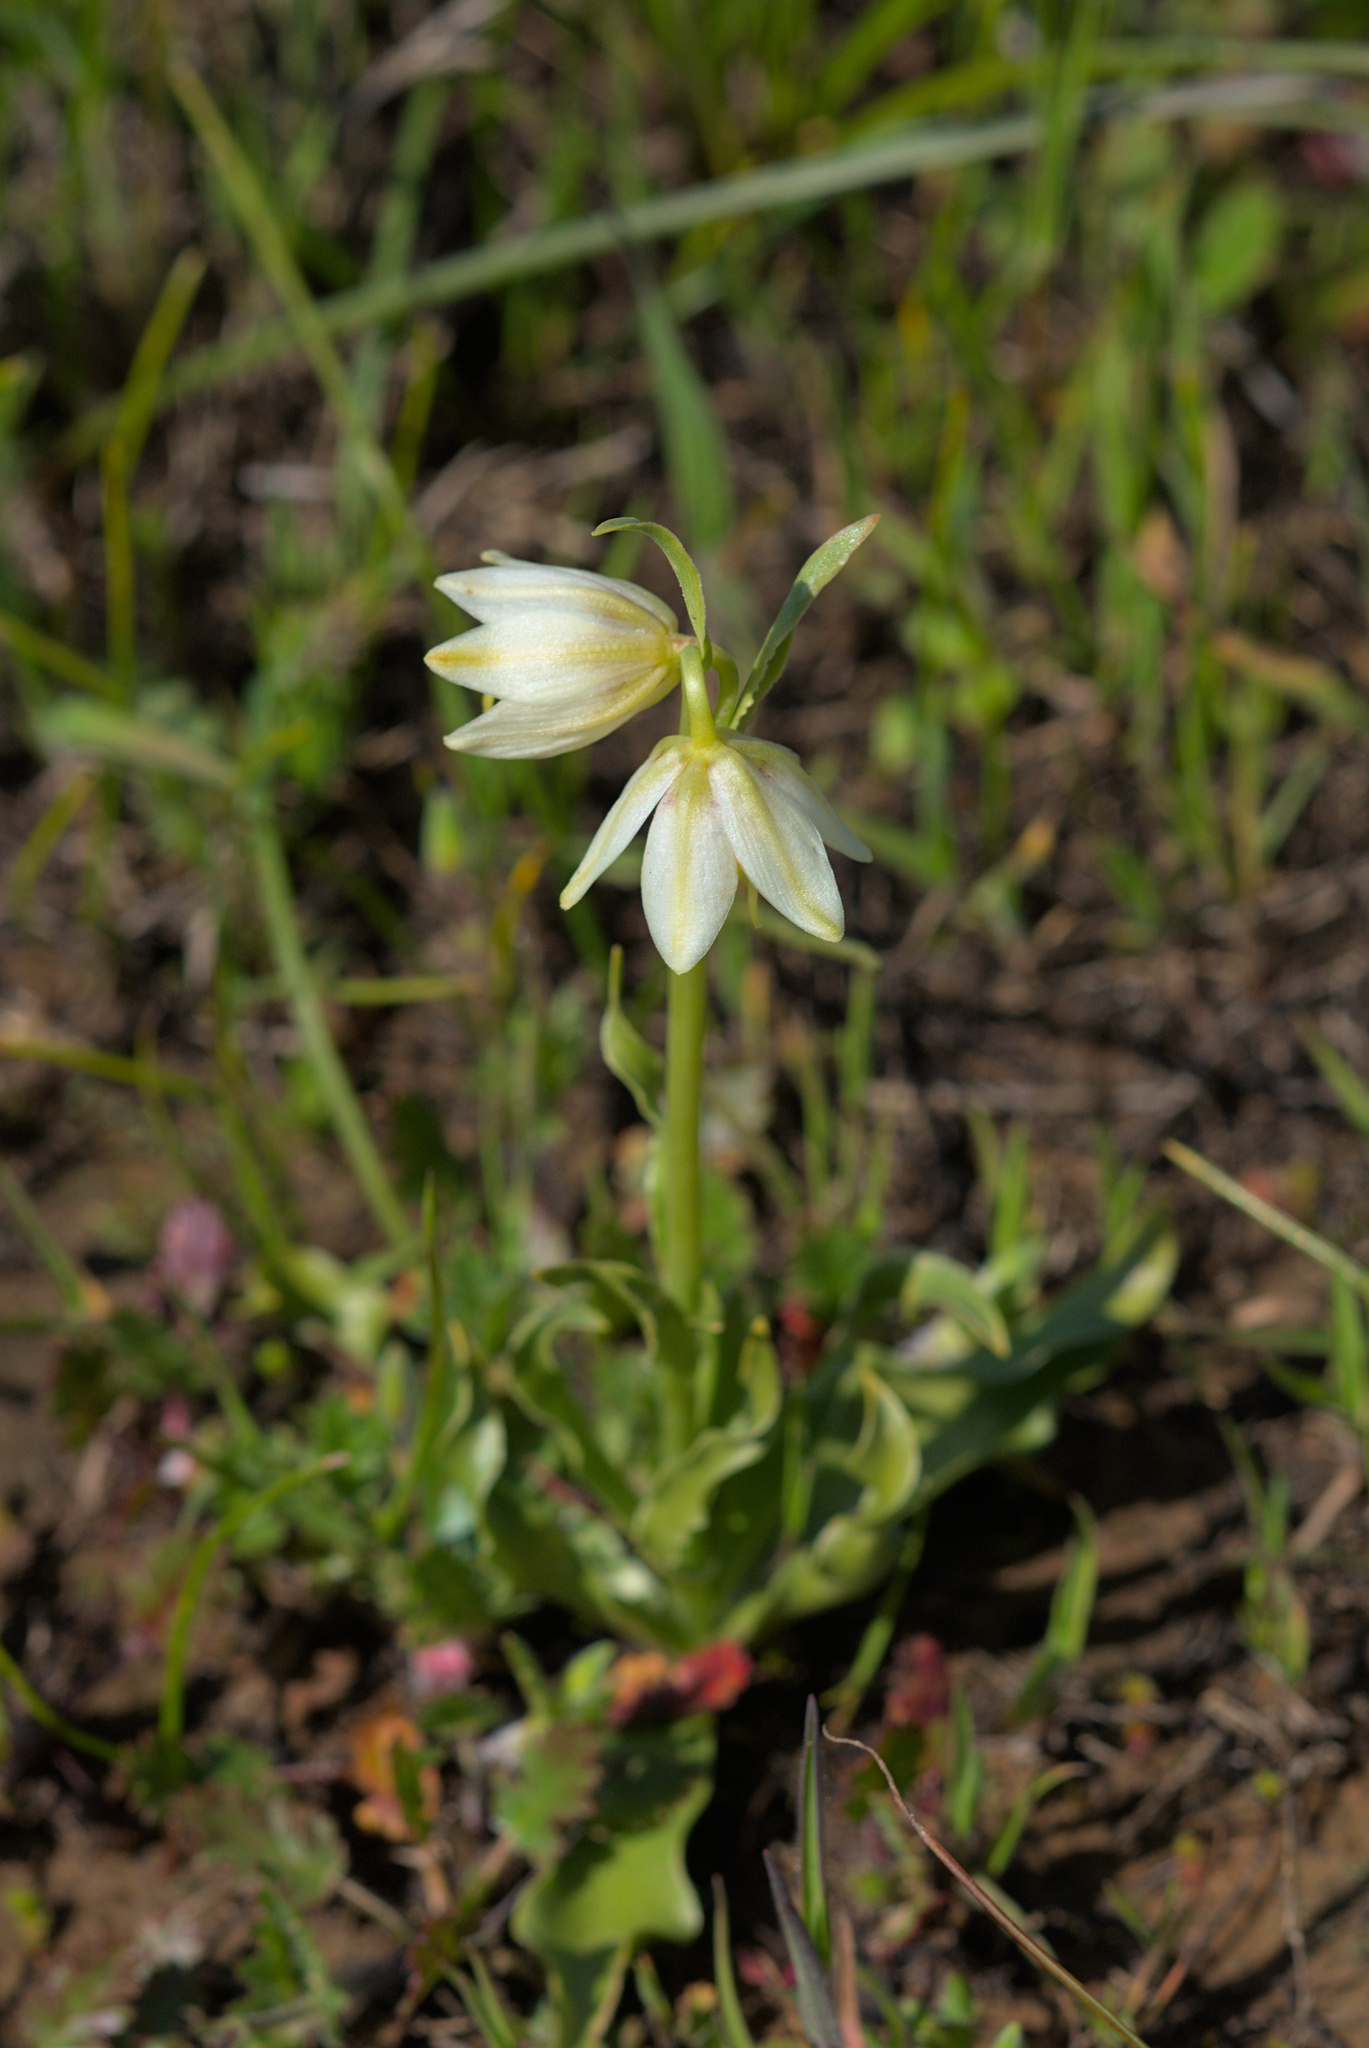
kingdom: Plantae
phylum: Tracheophyta
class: Liliopsida
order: Liliales
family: Liliaceae
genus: Fritillaria
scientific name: Fritillaria liliacea
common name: Fragrant fritillary
